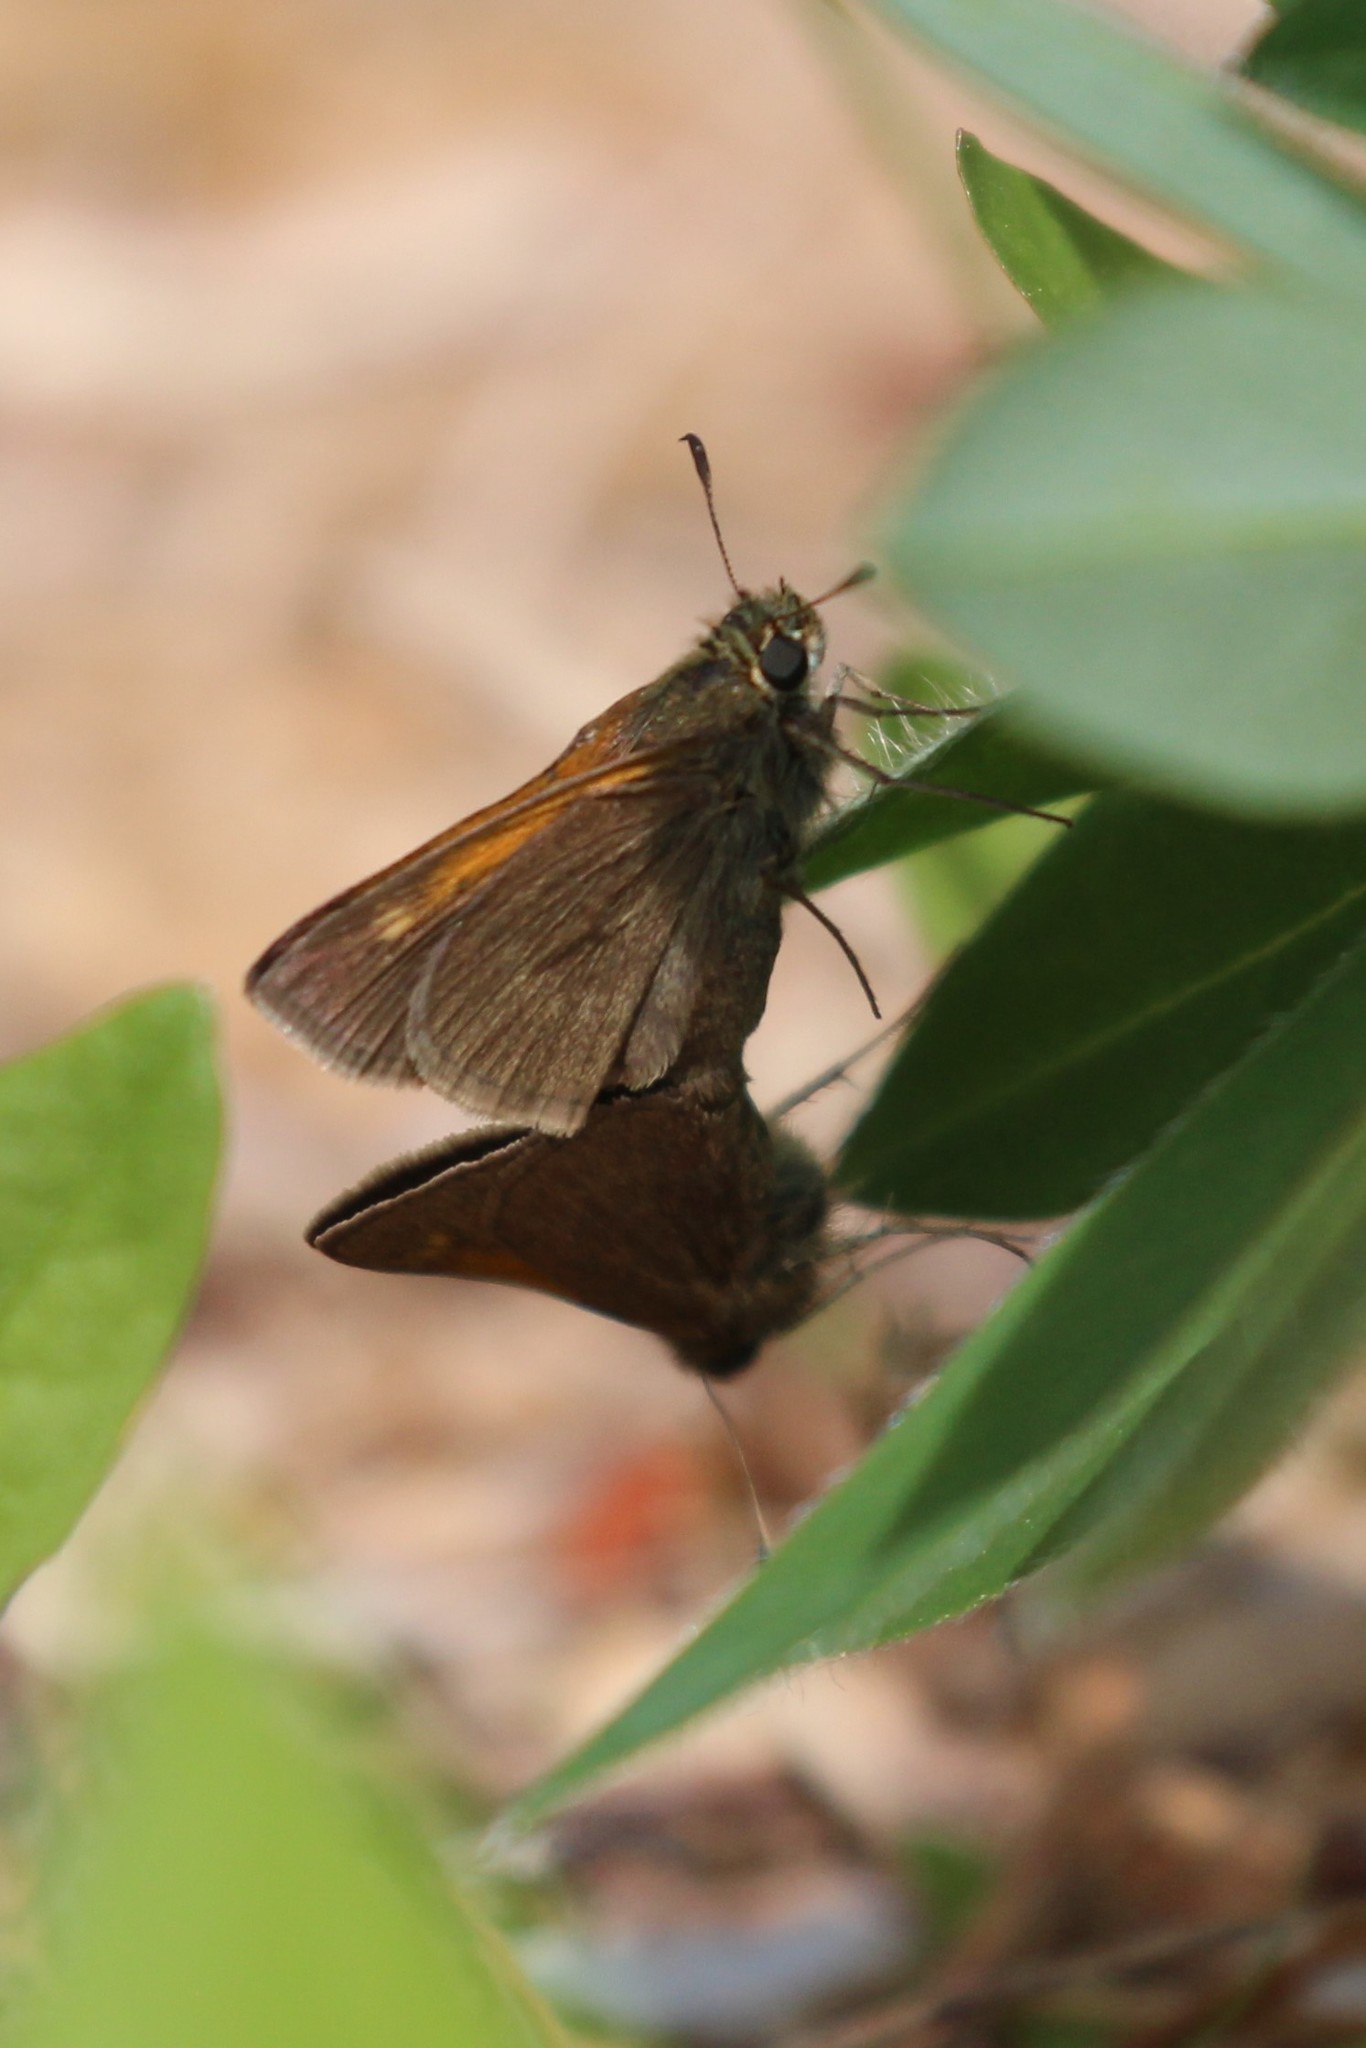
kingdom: Animalia
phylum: Arthropoda
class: Insecta
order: Lepidoptera
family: Hesperiidae
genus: Polites
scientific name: Polites themistocles
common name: Tawny-edged skipper
